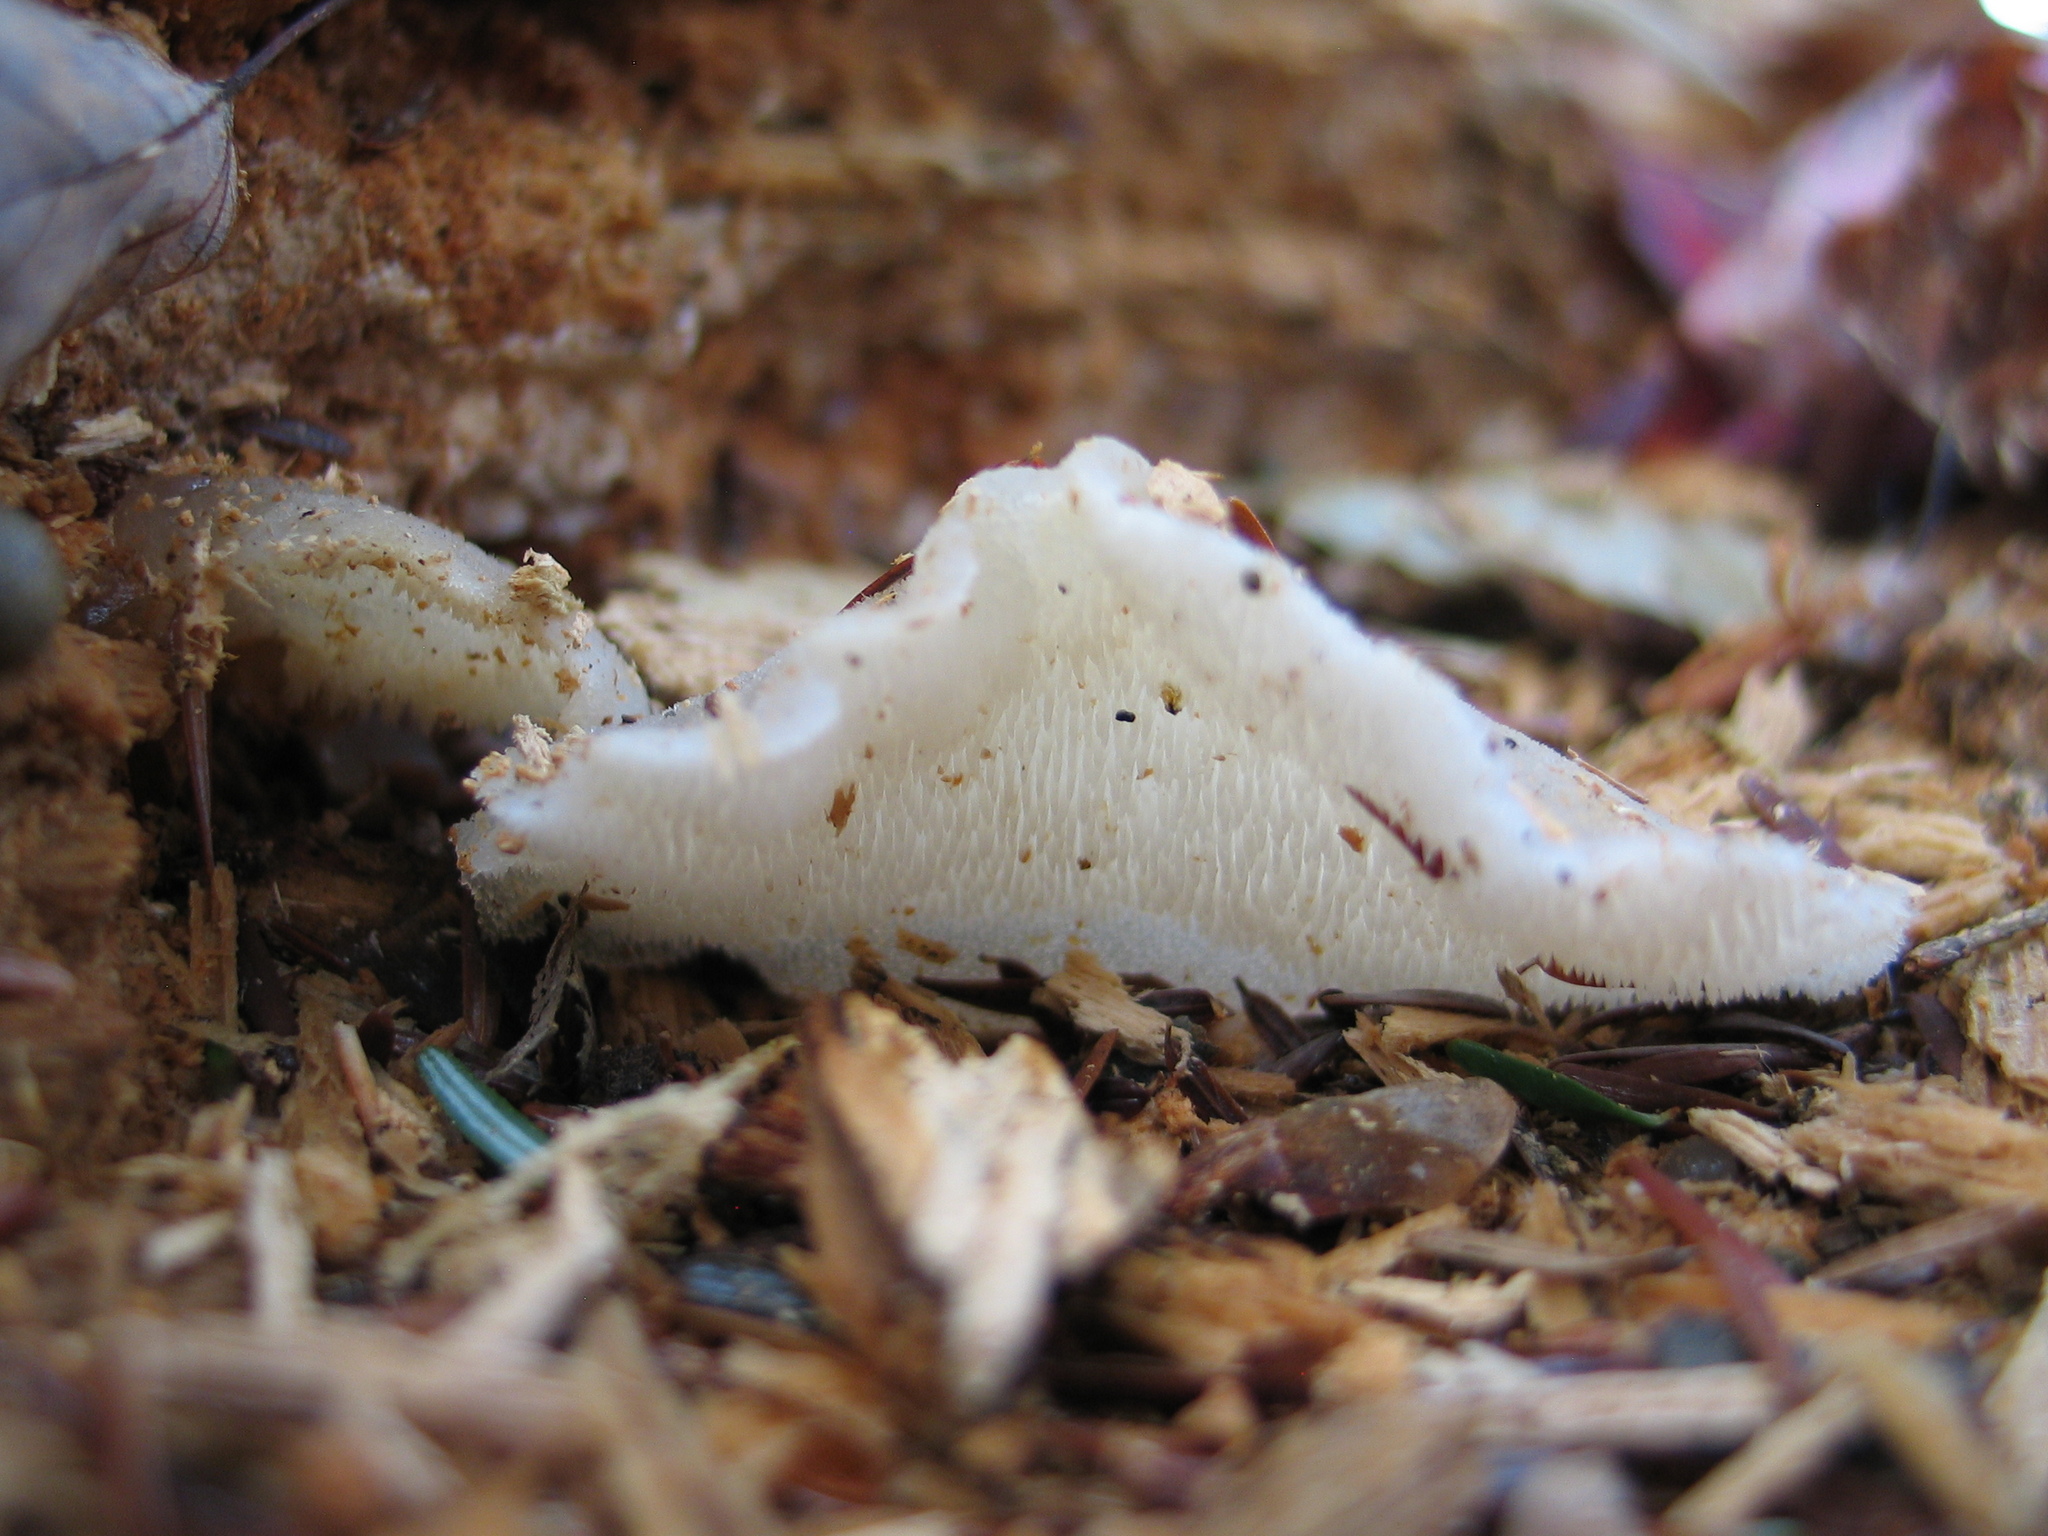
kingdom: Fungi
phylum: Basidiomycota
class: Agaricomycetes
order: Auriculariales
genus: Pseudohydnum
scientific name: Pseudohydnum gelatinosum
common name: Jelly tongue
